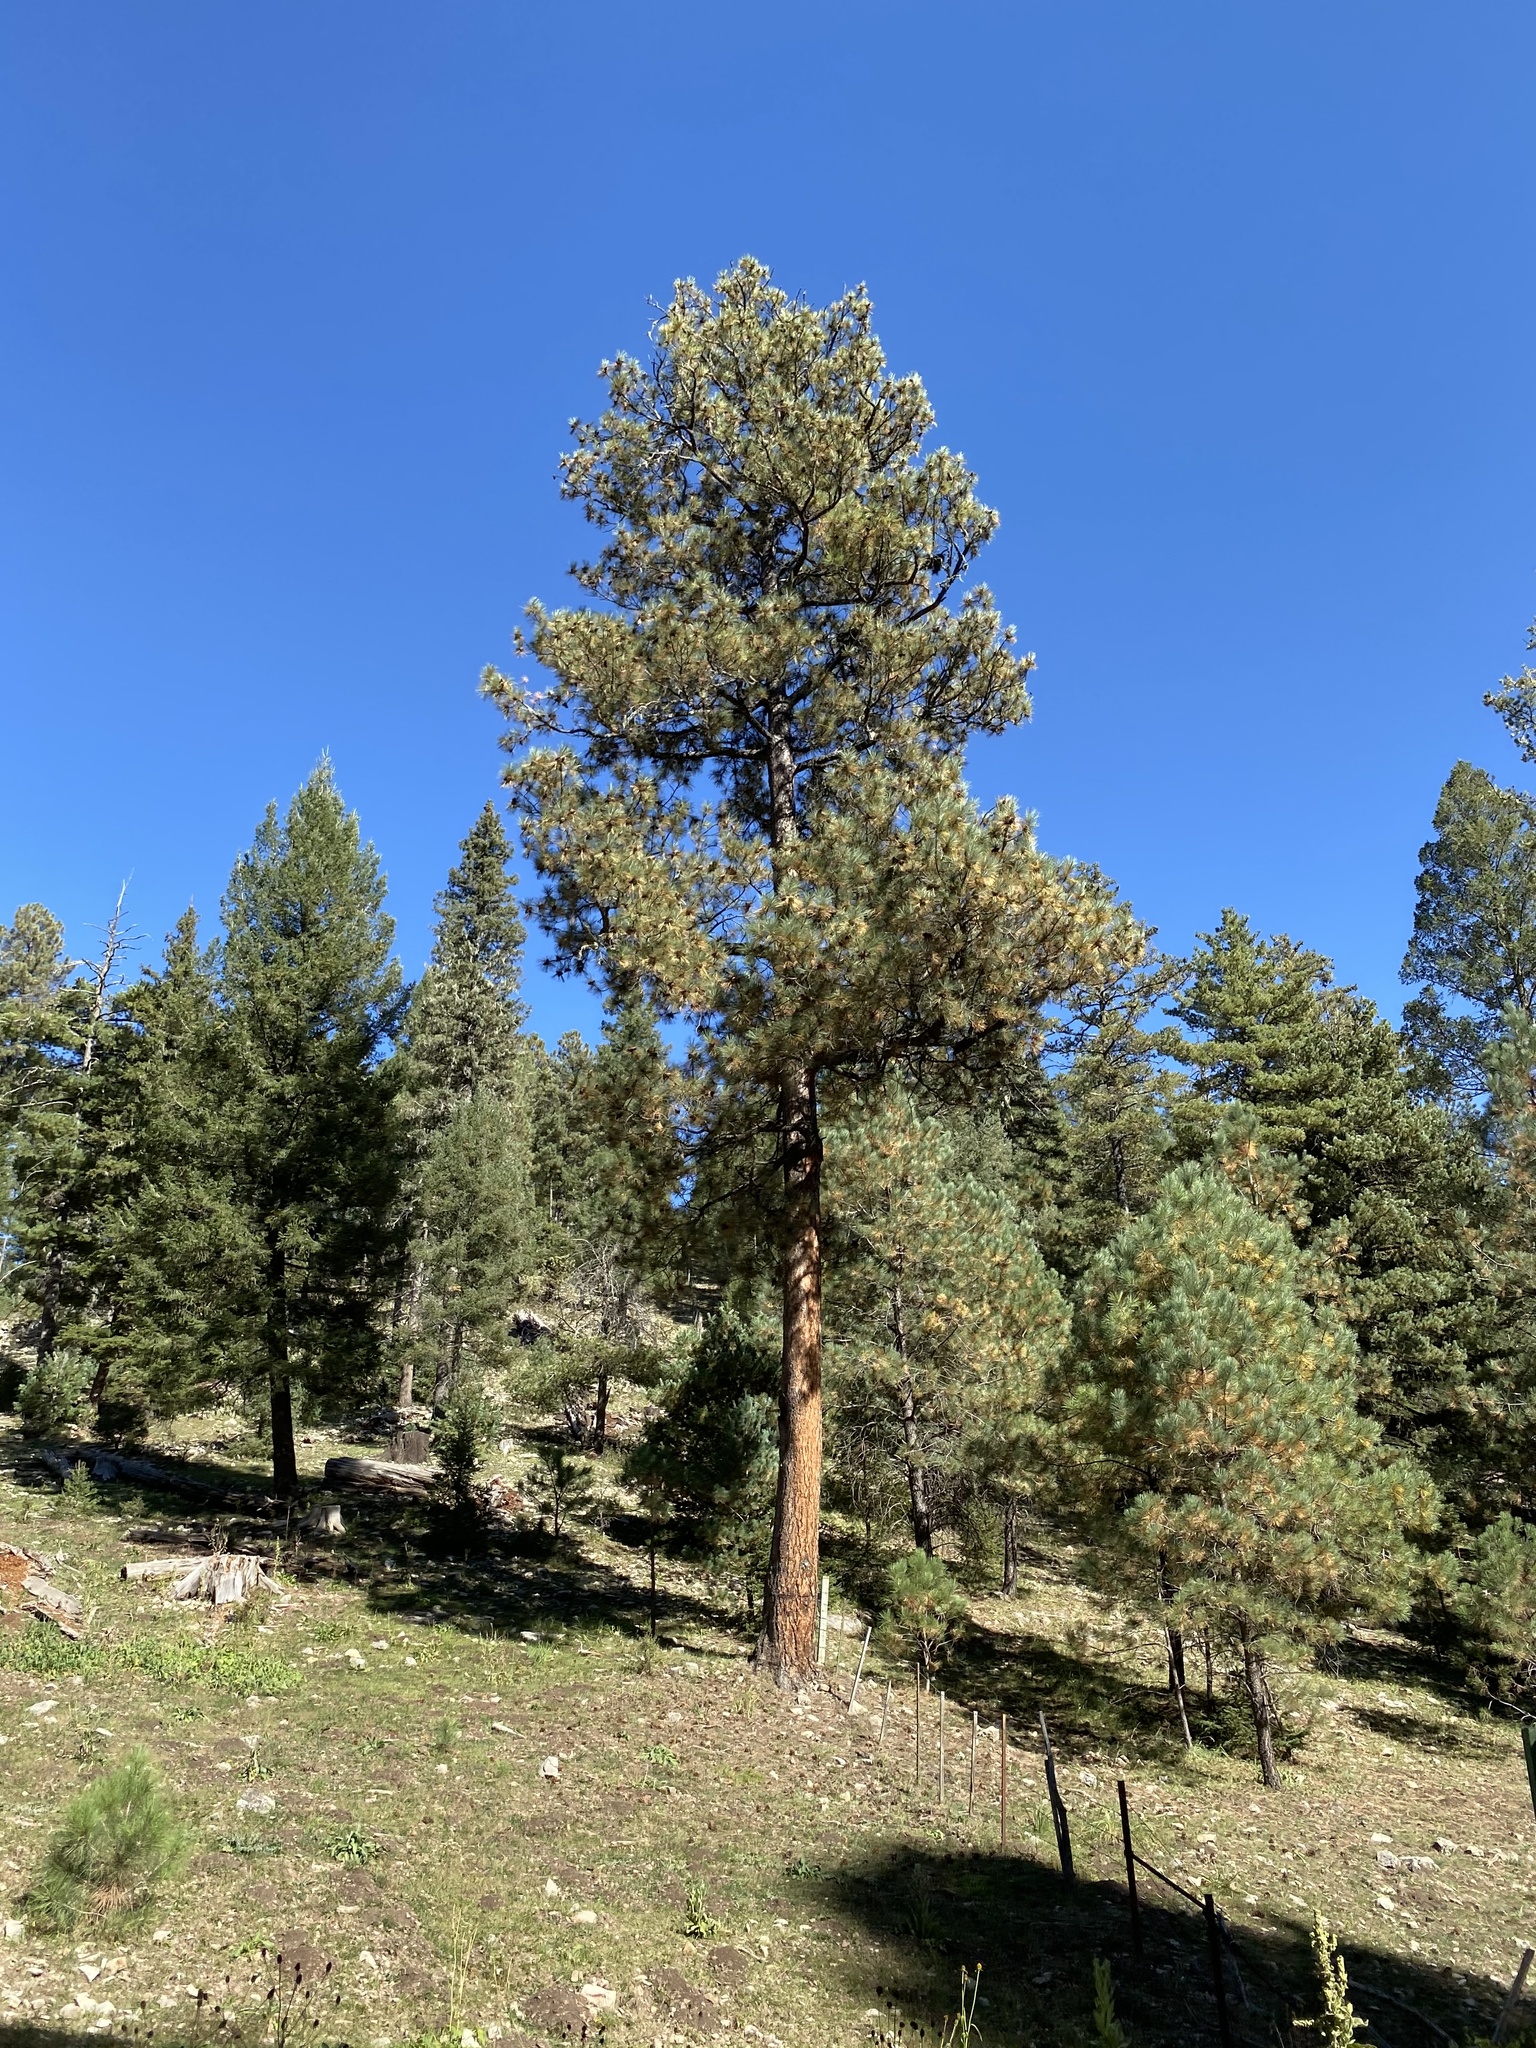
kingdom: Plantae
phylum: Tracheophyta
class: Pinopsida
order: Pinales
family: Pinaceae
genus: Pinus
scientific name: Pinus ponderosa
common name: Western yellow-pine
